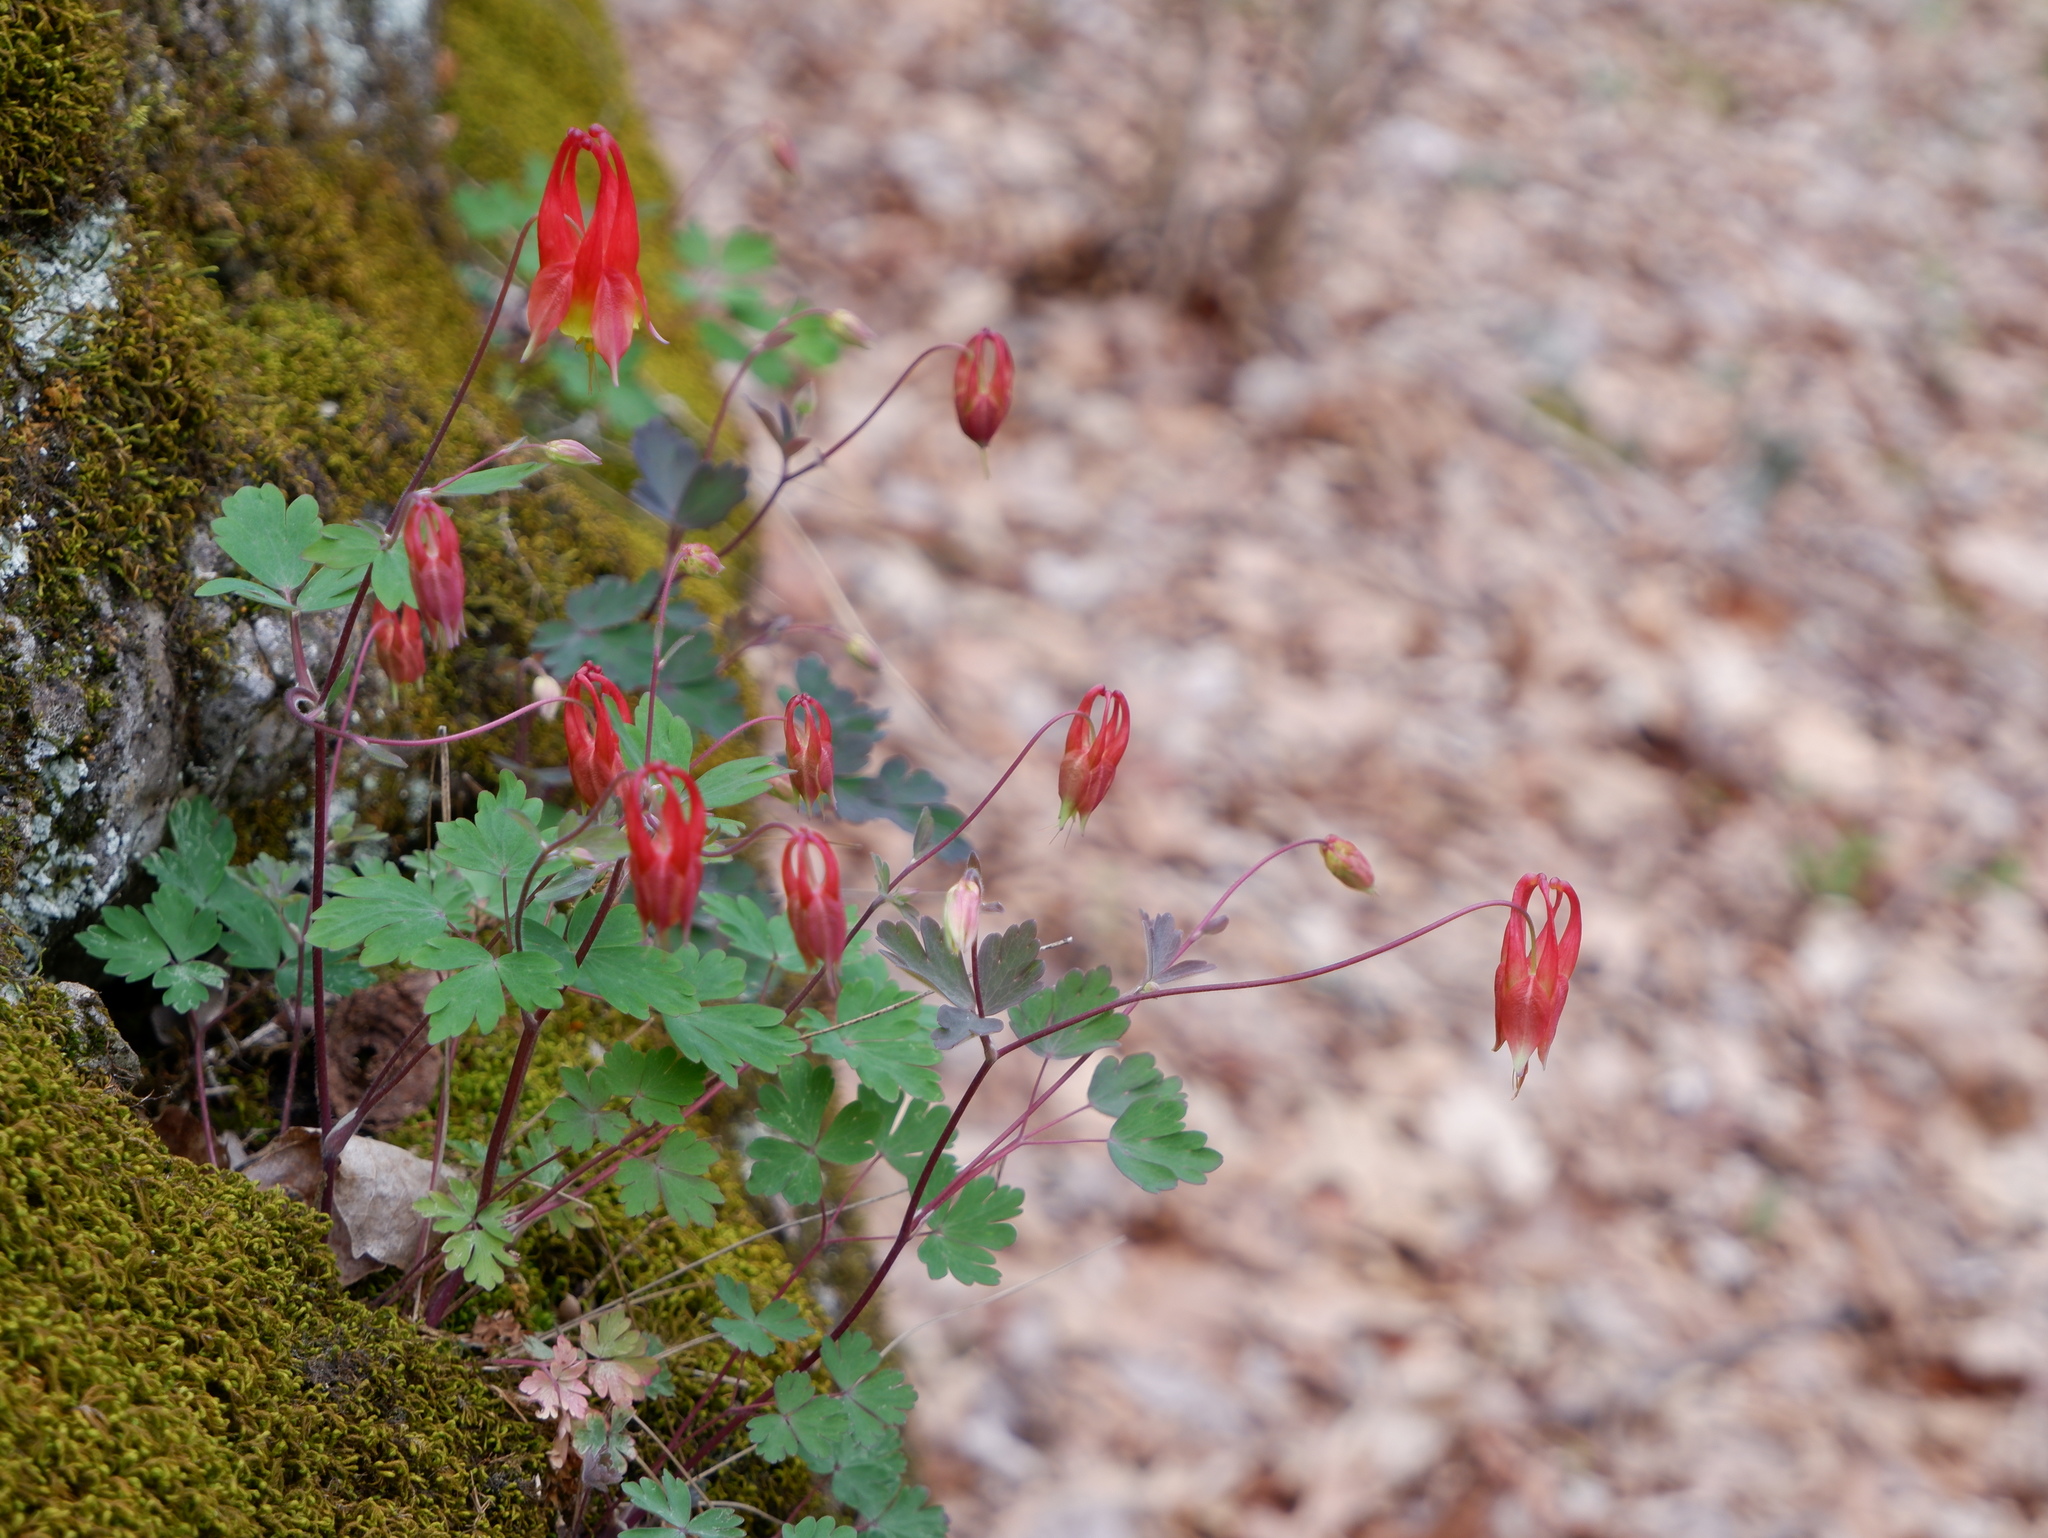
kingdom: Plantae
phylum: Tracheophyta
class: Magnoliopsida
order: Ranunculales
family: Ranunculaceae
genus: Aquilegia
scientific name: Aquilegia canadensis
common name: American columbine
